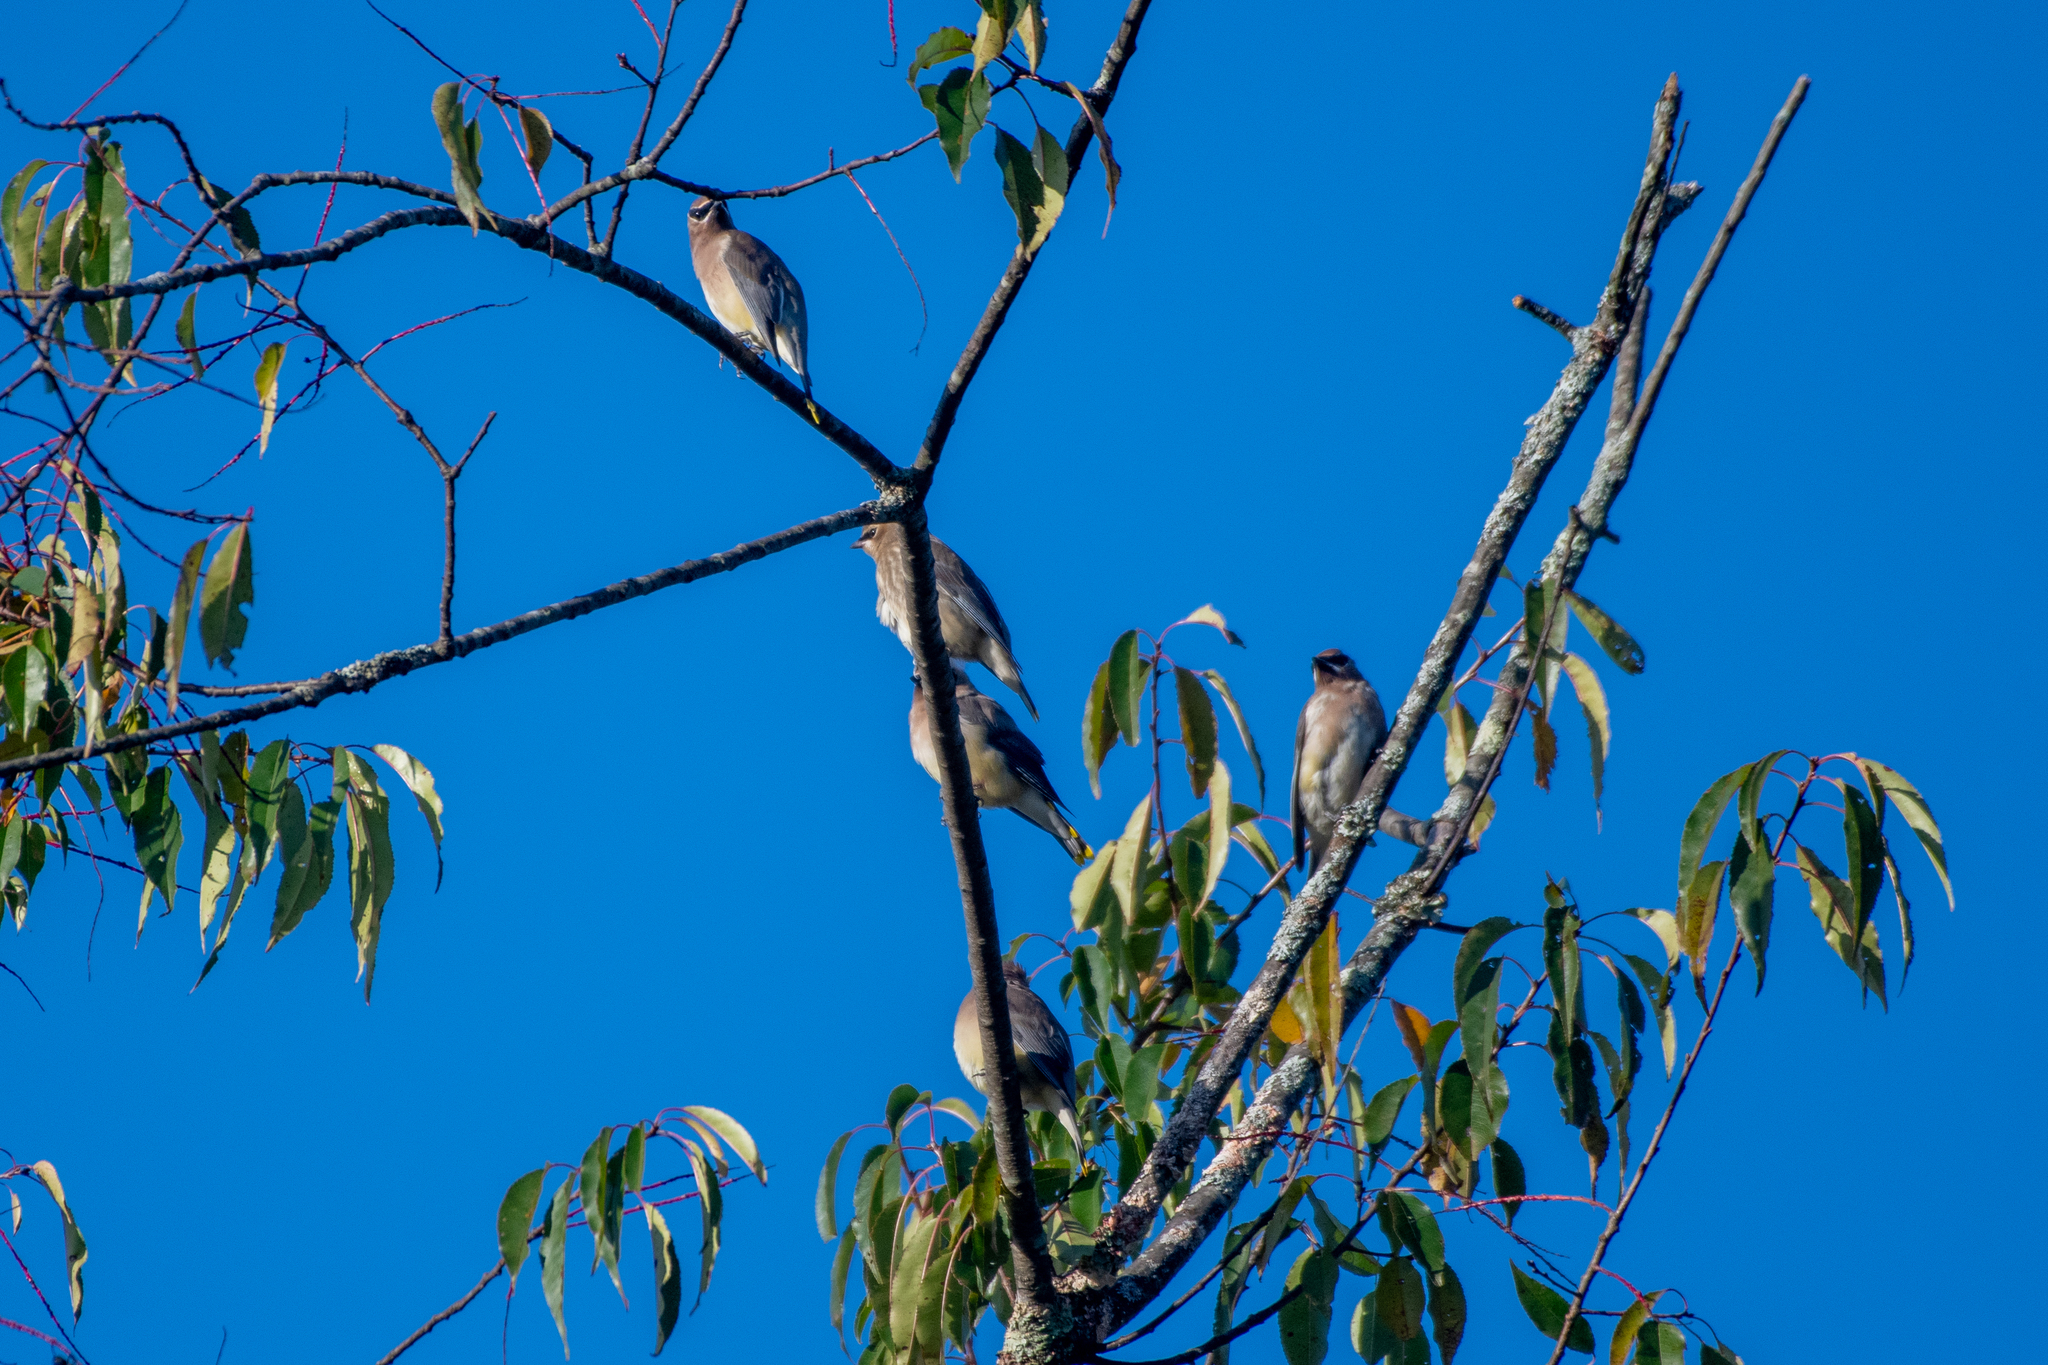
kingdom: Animalia
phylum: Chordata
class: Aves
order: Passeriformes
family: Bombycillidae
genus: Bombycilla
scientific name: Bombycilla cedrorum
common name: Cedar waxwing
